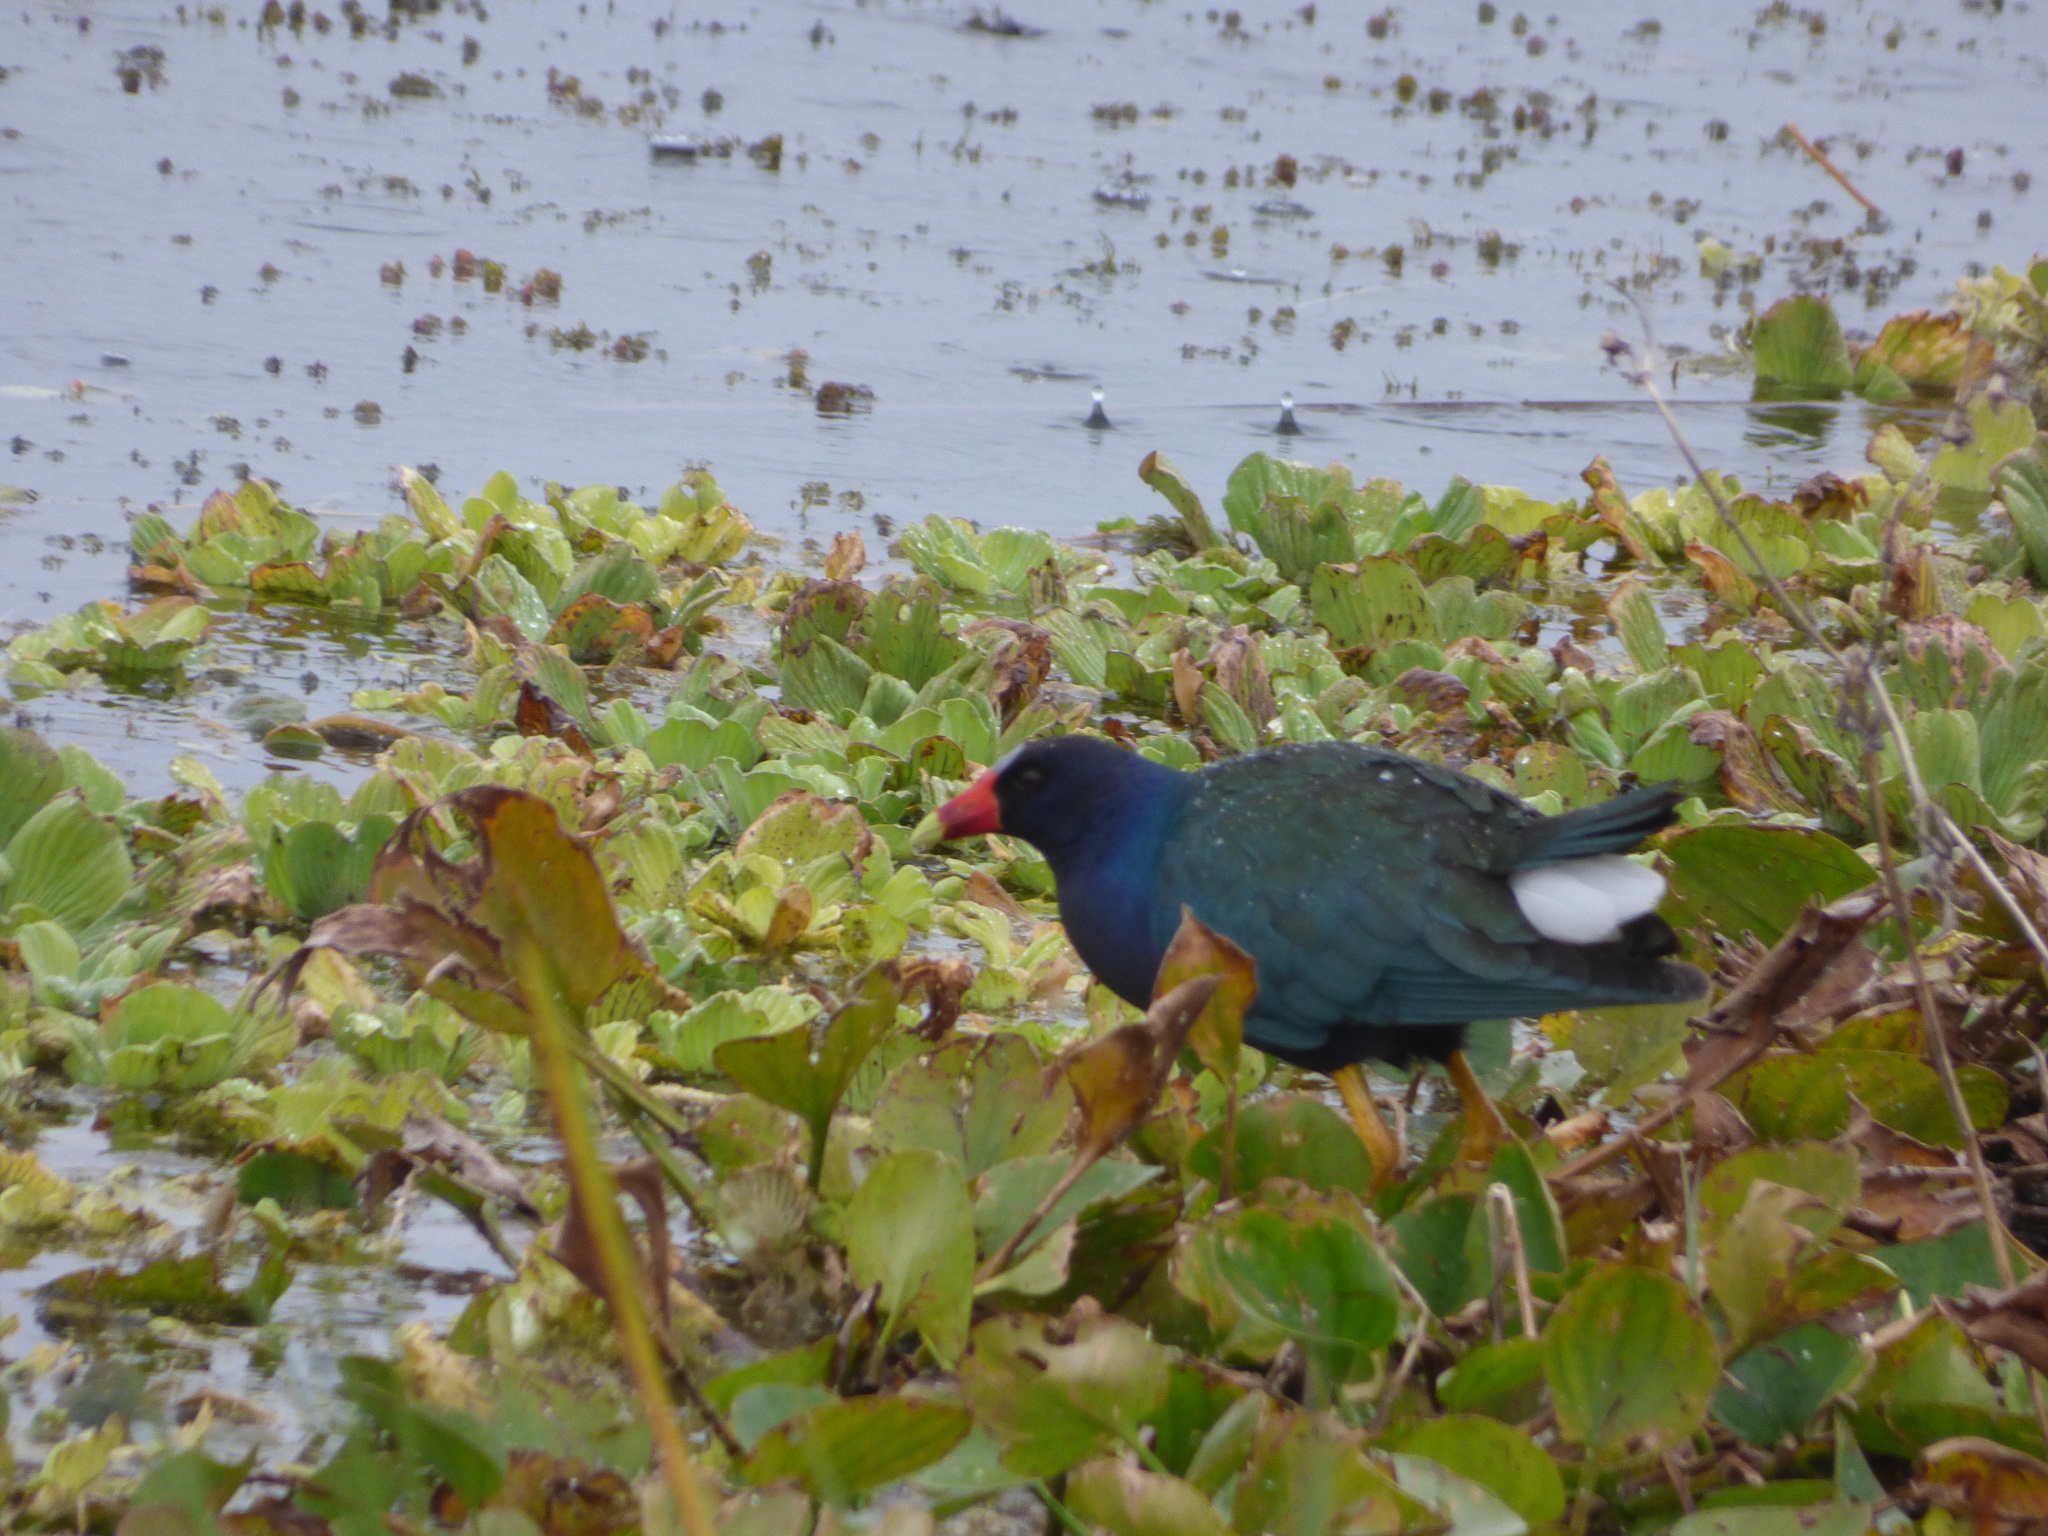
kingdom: Animalia
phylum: Chordata
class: Aves
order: Gruiformes
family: Rallidae
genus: Porphyrio
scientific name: Porphyrio martinica
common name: Purple gallinule
